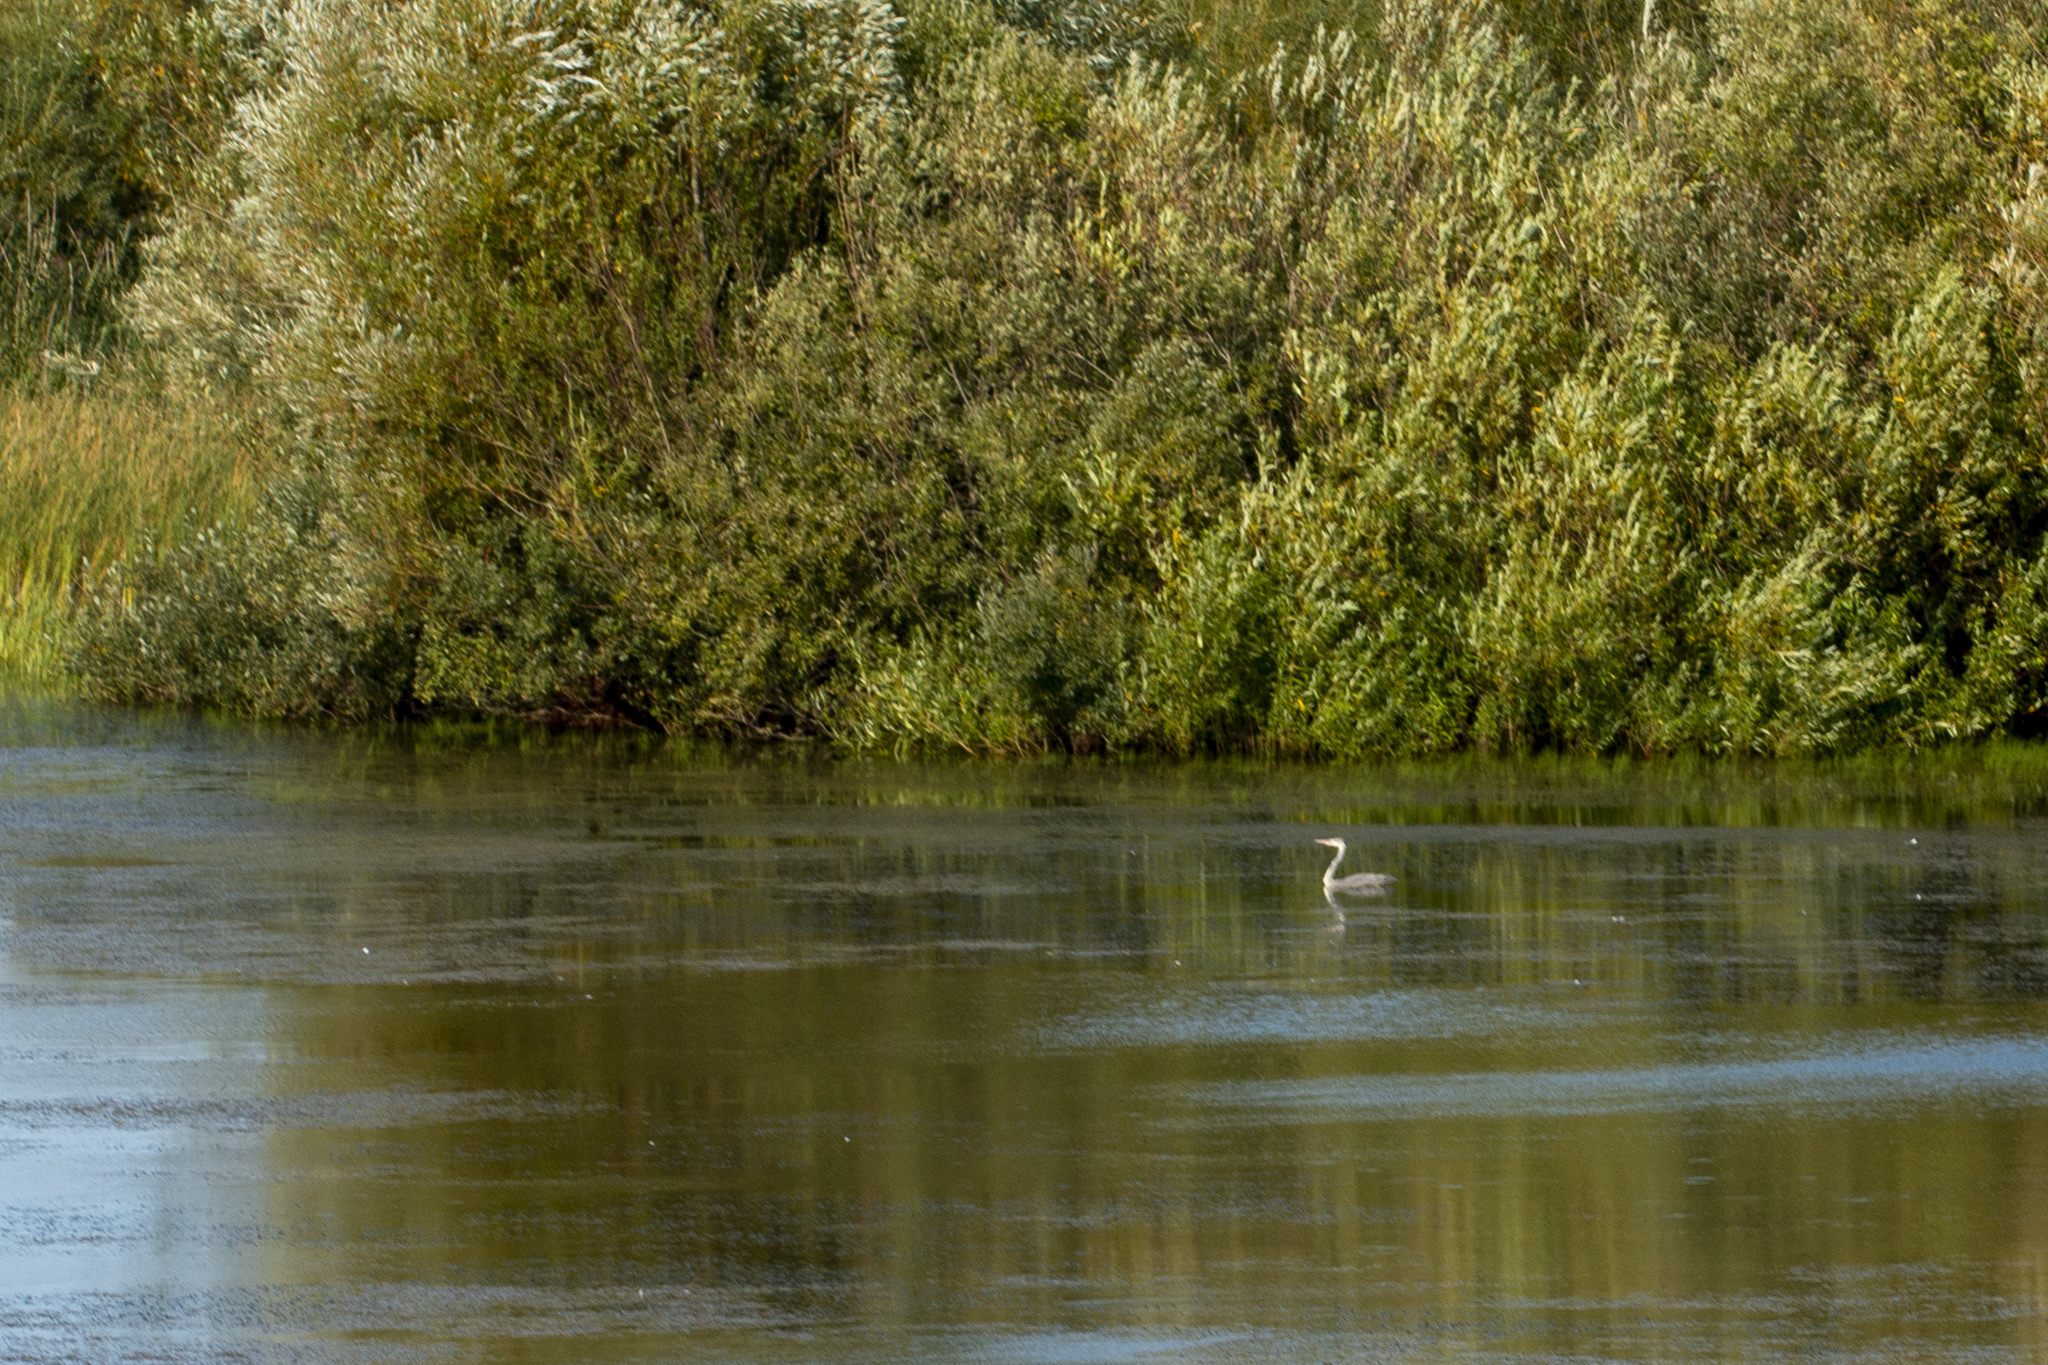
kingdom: Animalia
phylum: Chordata
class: Aves
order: Pelecaniformes
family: Ardeidae
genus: Ardea
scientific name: Ardea cinerea
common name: Grey heron
